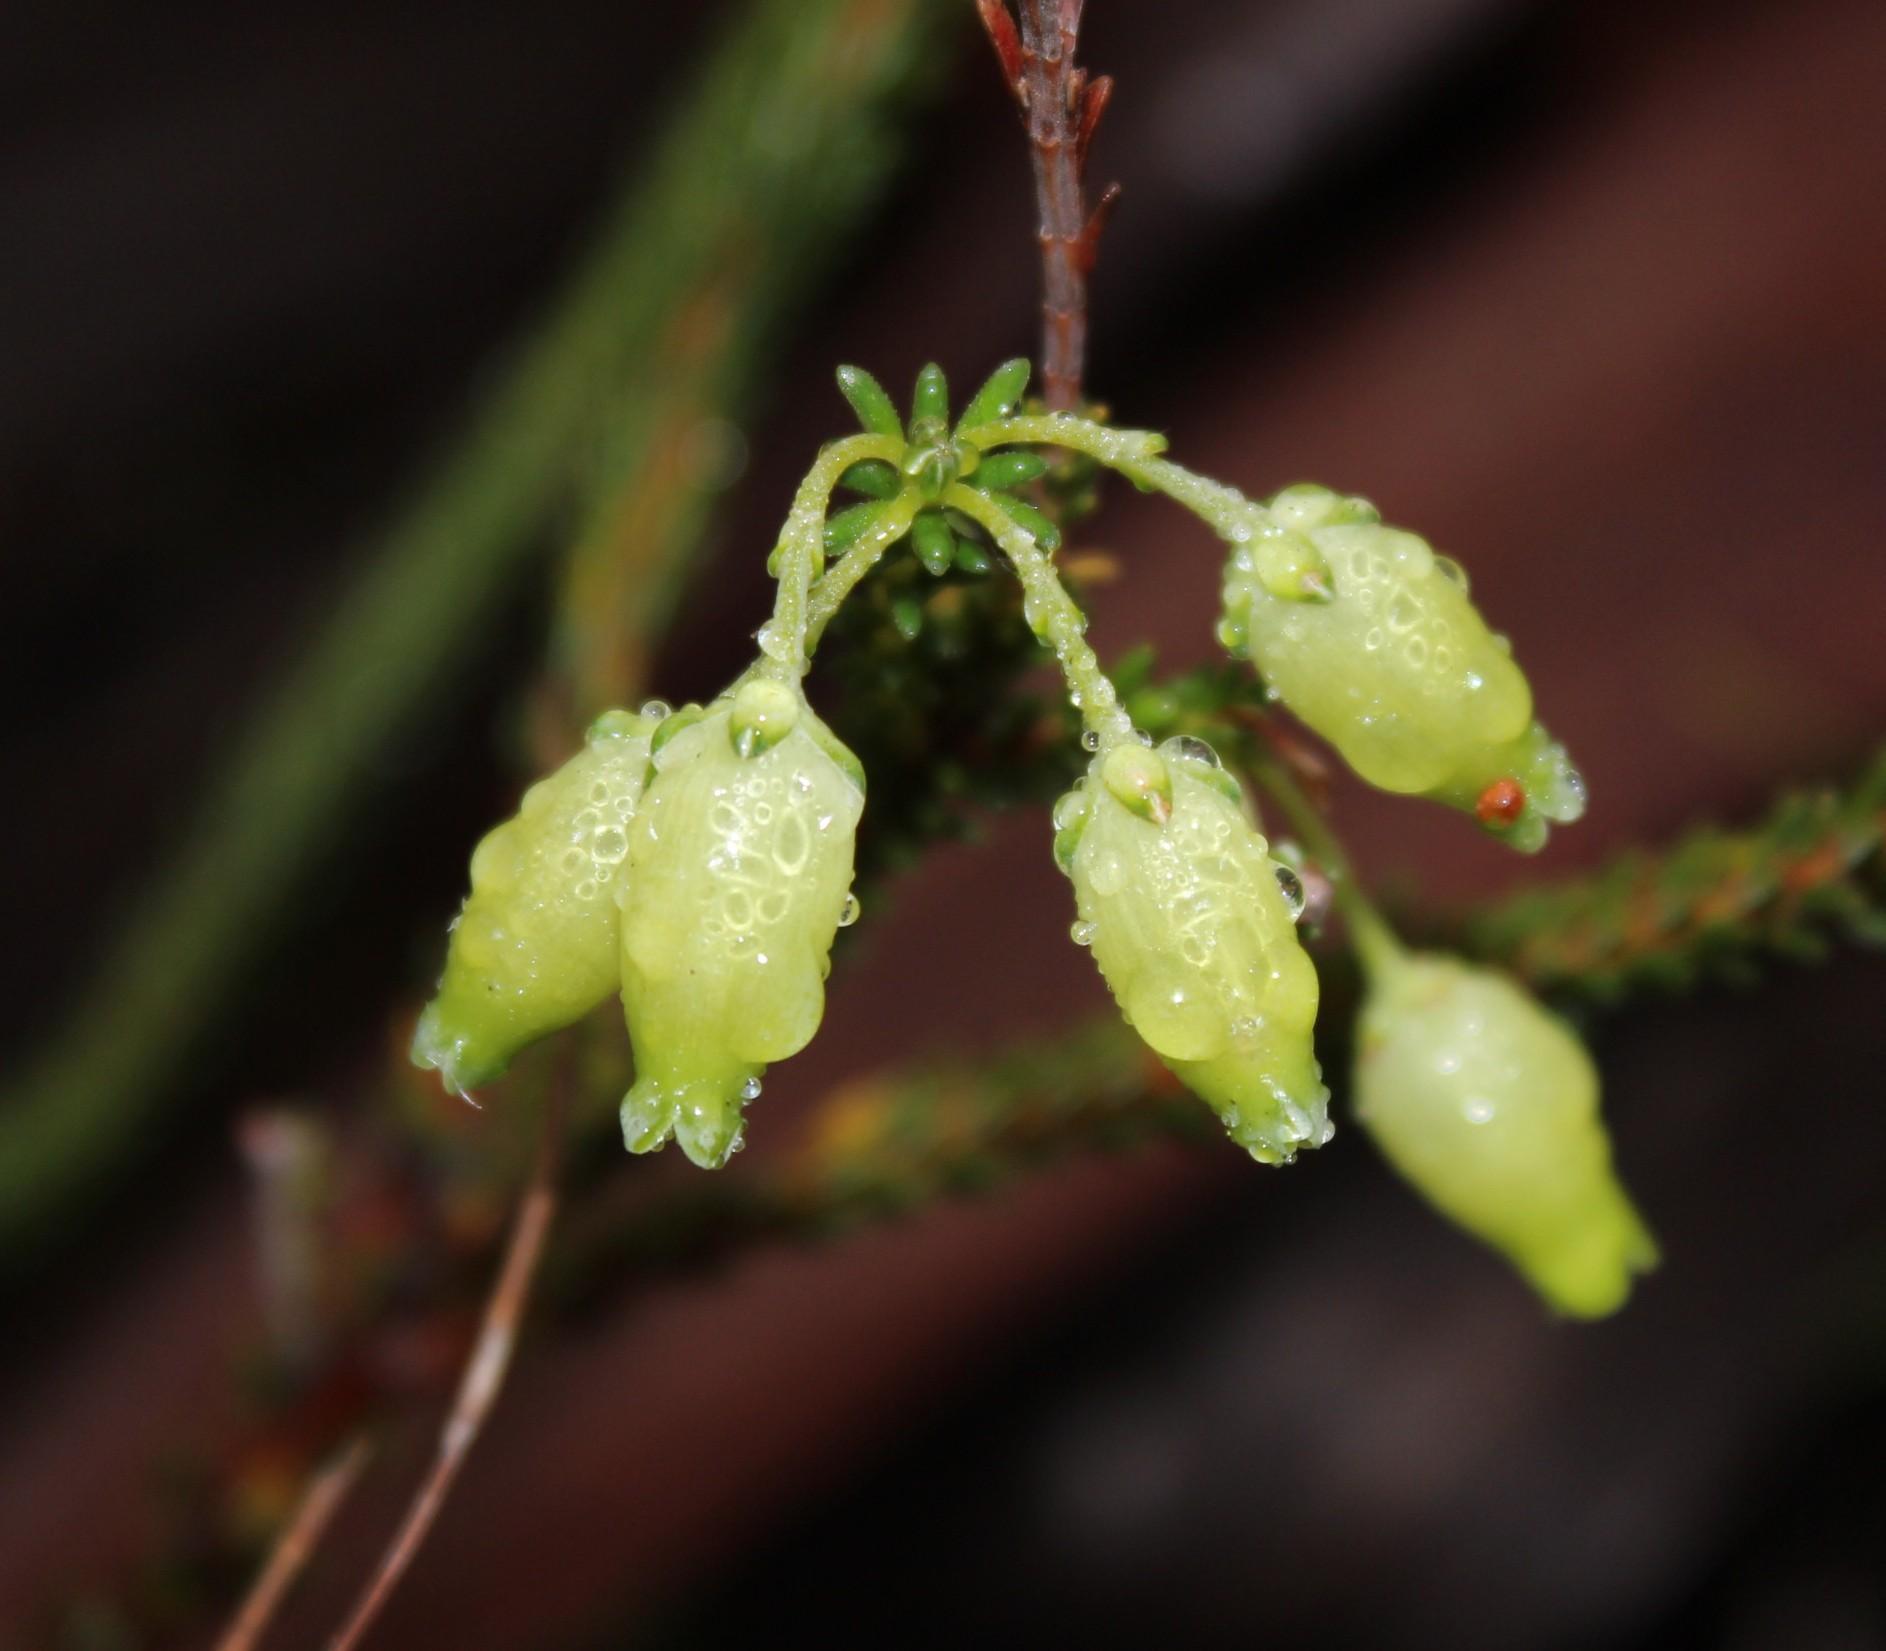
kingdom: Plantae
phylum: Tracheophyta
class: Magnoliopsida
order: Ericales
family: Ericaceae
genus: Erica
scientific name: Erica urna-viridis
